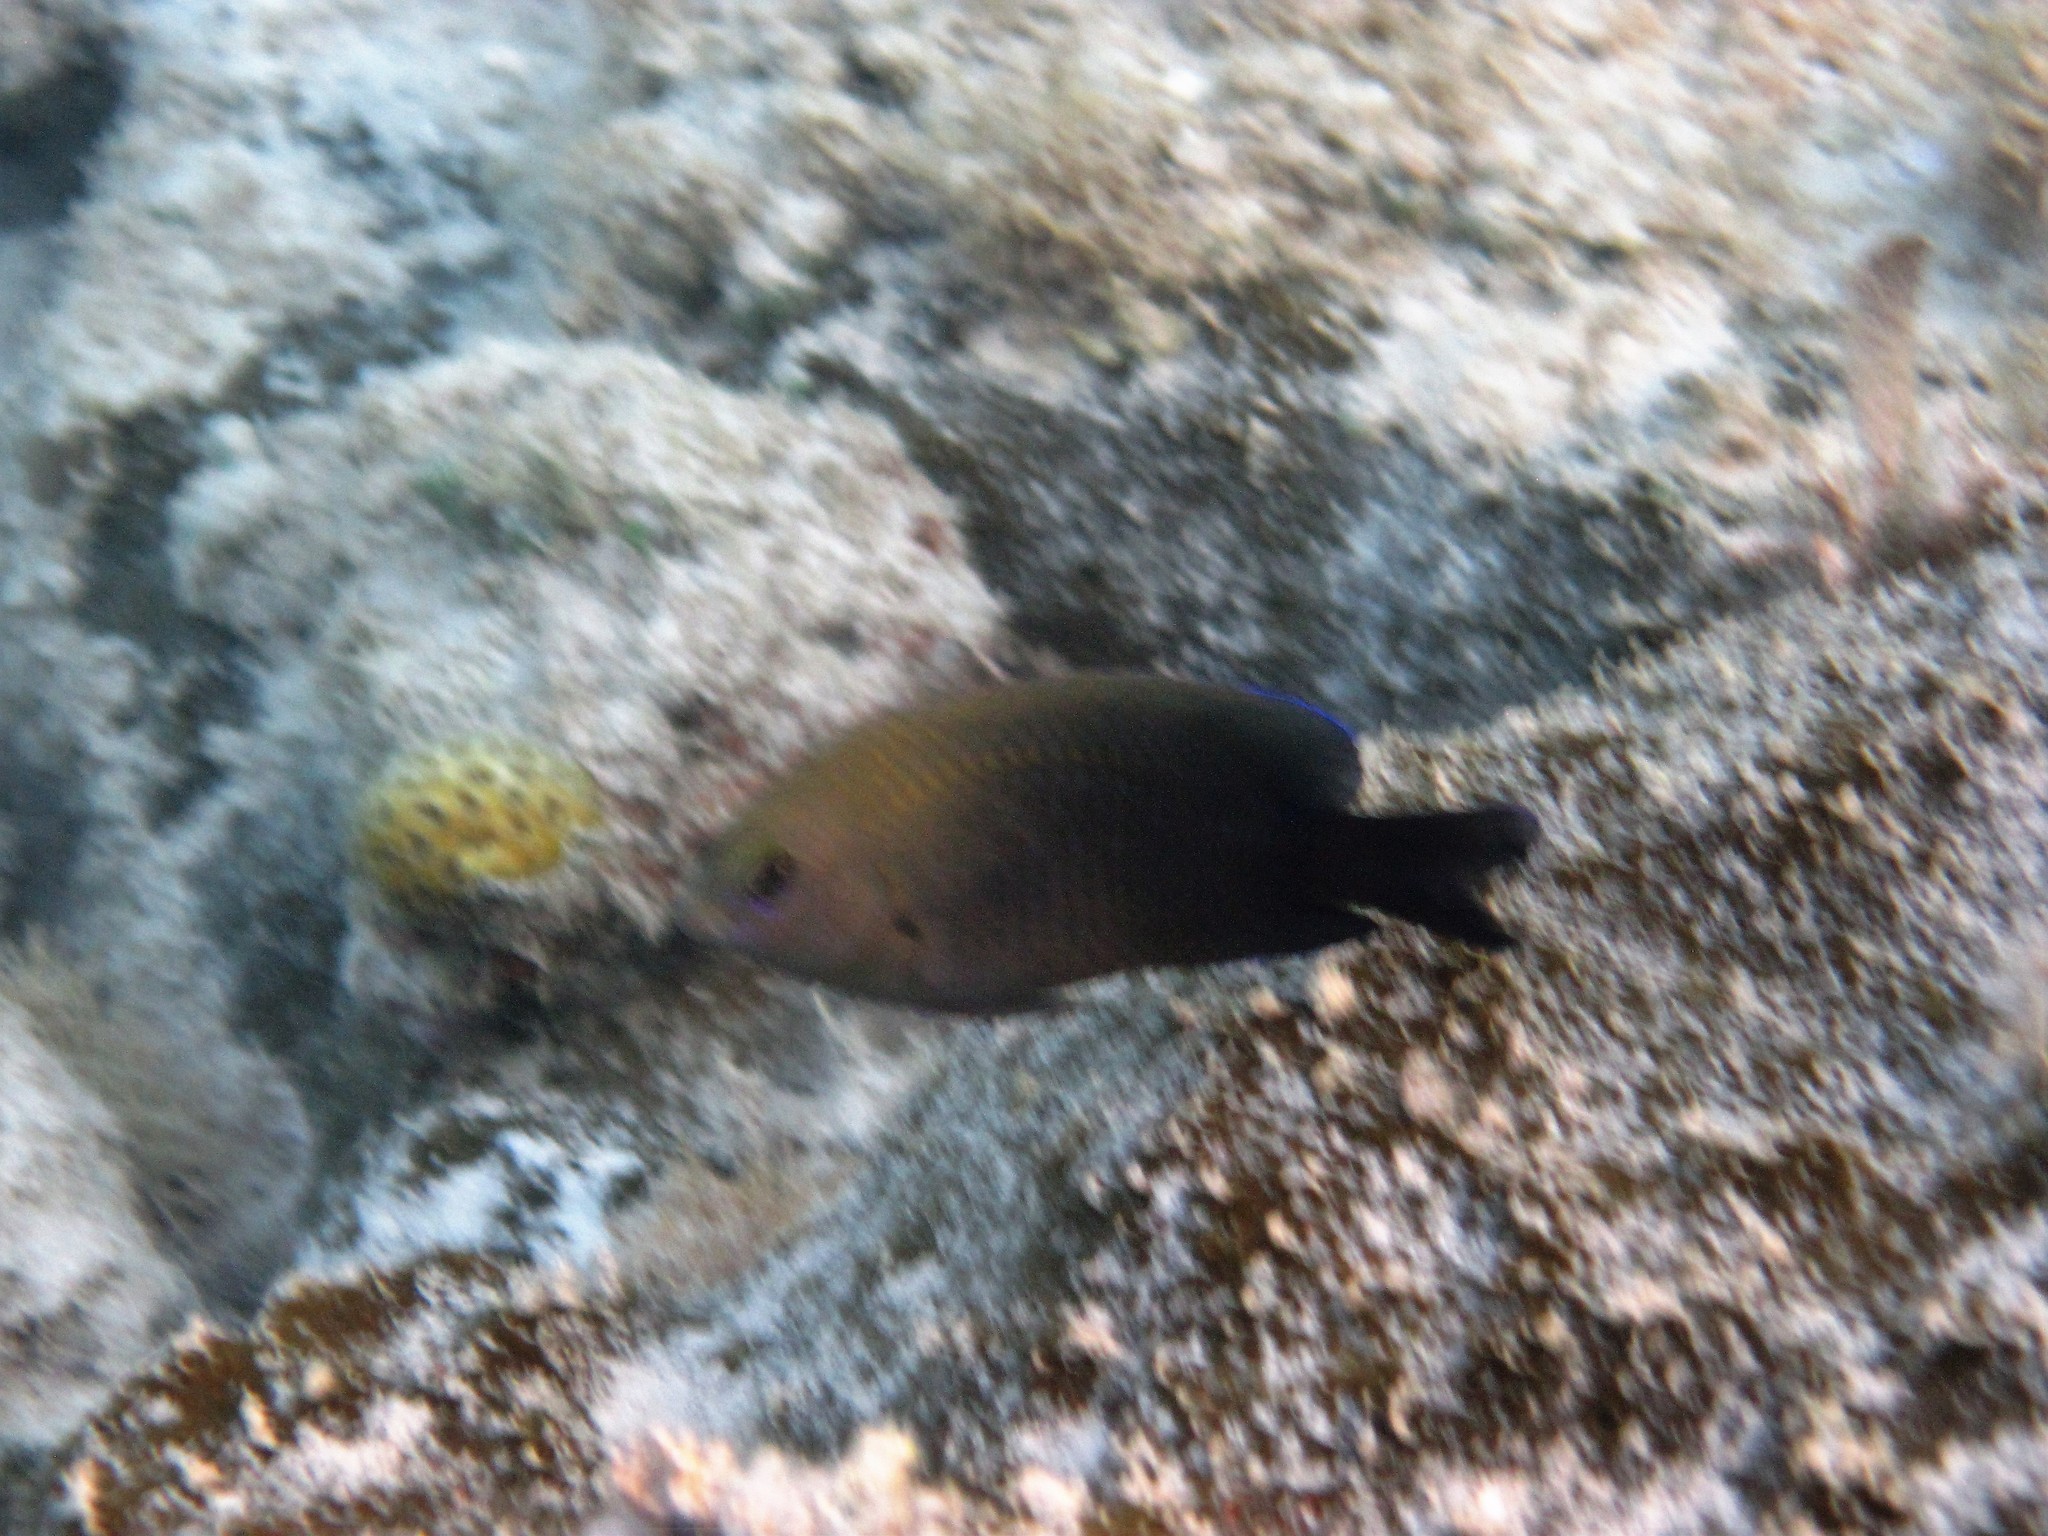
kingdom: Animalia
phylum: Chordata
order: Perciformes
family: Pomacentridae
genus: Stegastes
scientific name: Stegastes leucostictus
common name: Beaugregory
